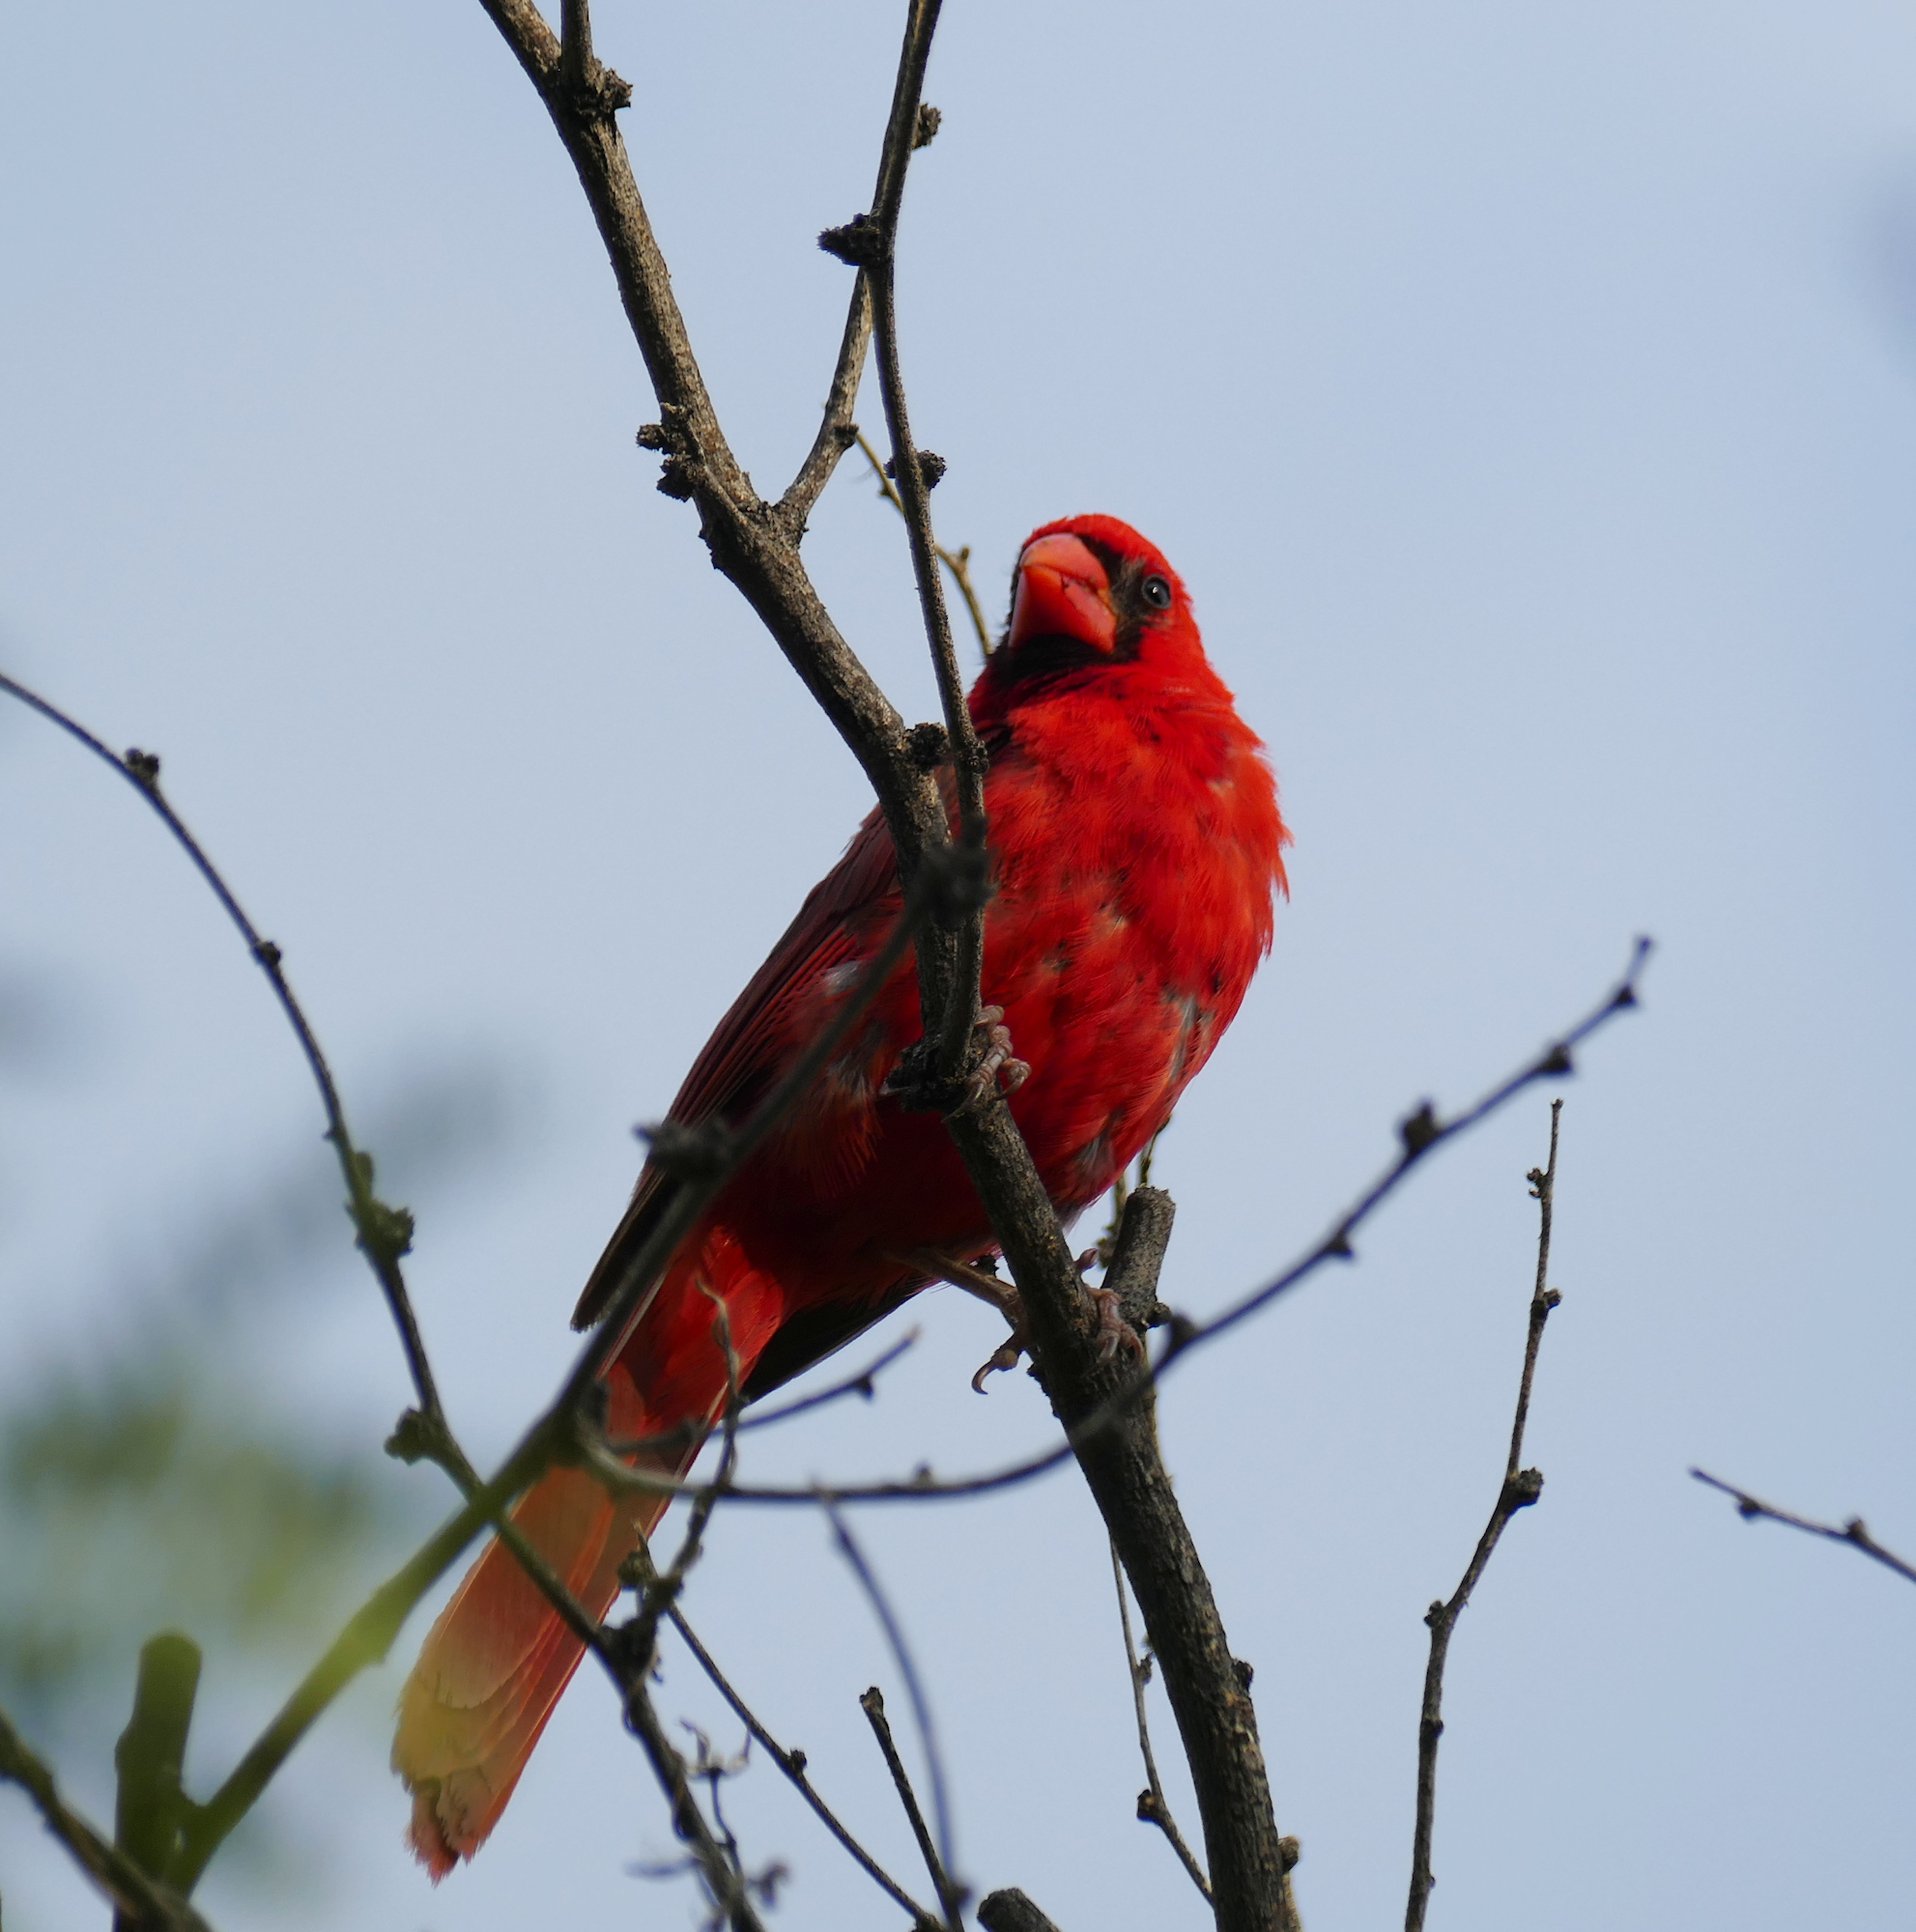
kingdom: Animalia
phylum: Chordata
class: Aves
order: Passeriformes
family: Cardinalidae
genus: Cardinalis
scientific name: Cardinalis cardinalis
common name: Northern cardinal
